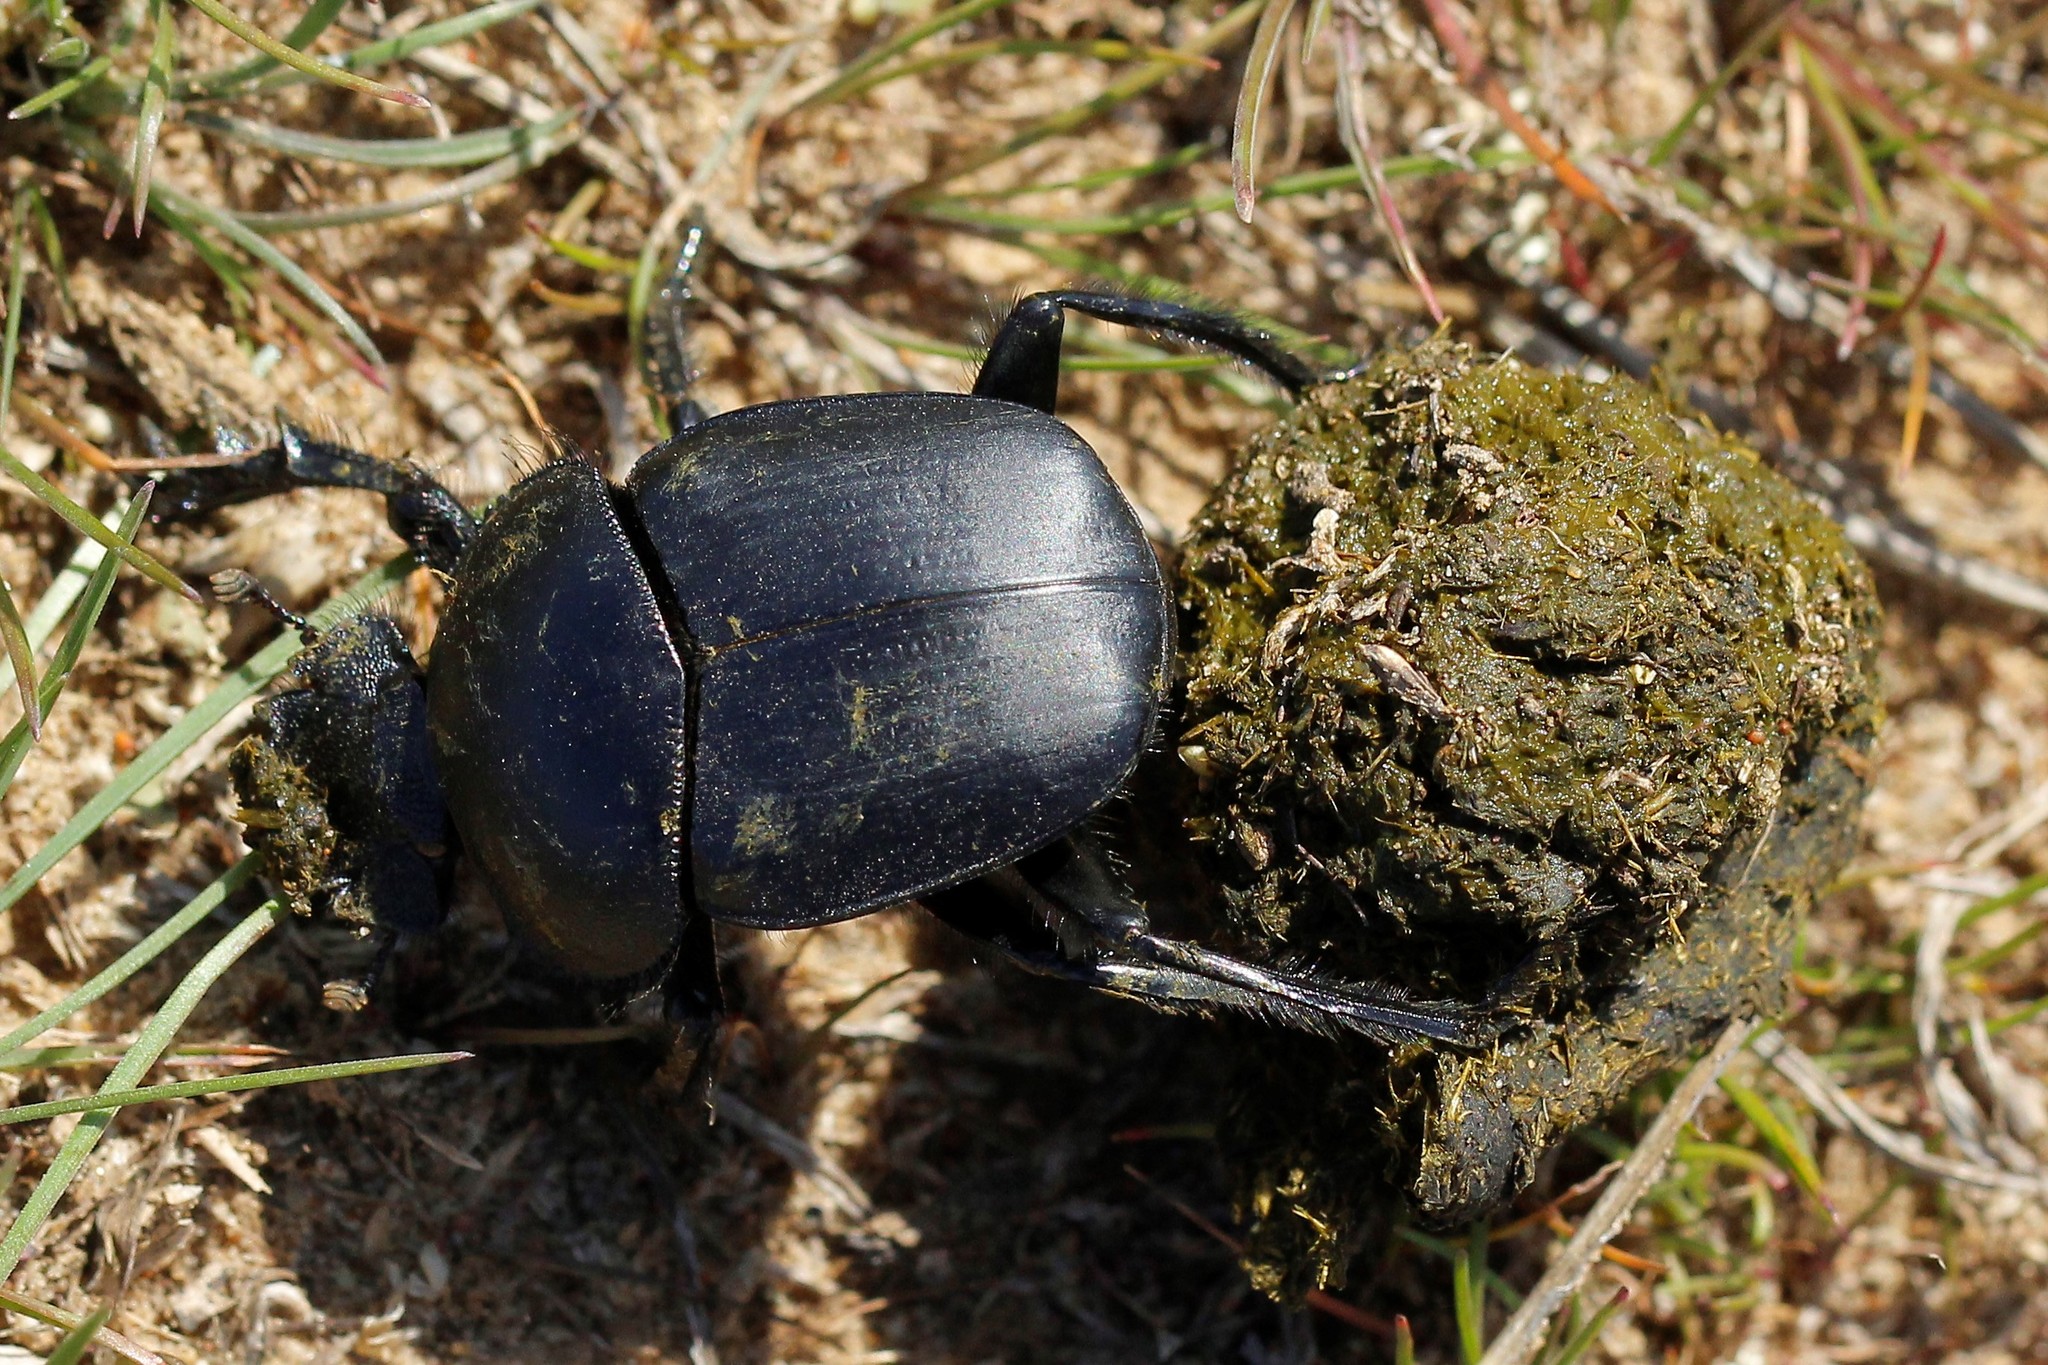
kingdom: Animalia
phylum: Arthropoda
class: Insecta
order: Coleoptera
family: Scarabaeidae
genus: Scarabaeus
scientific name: Scarabaeus pius
